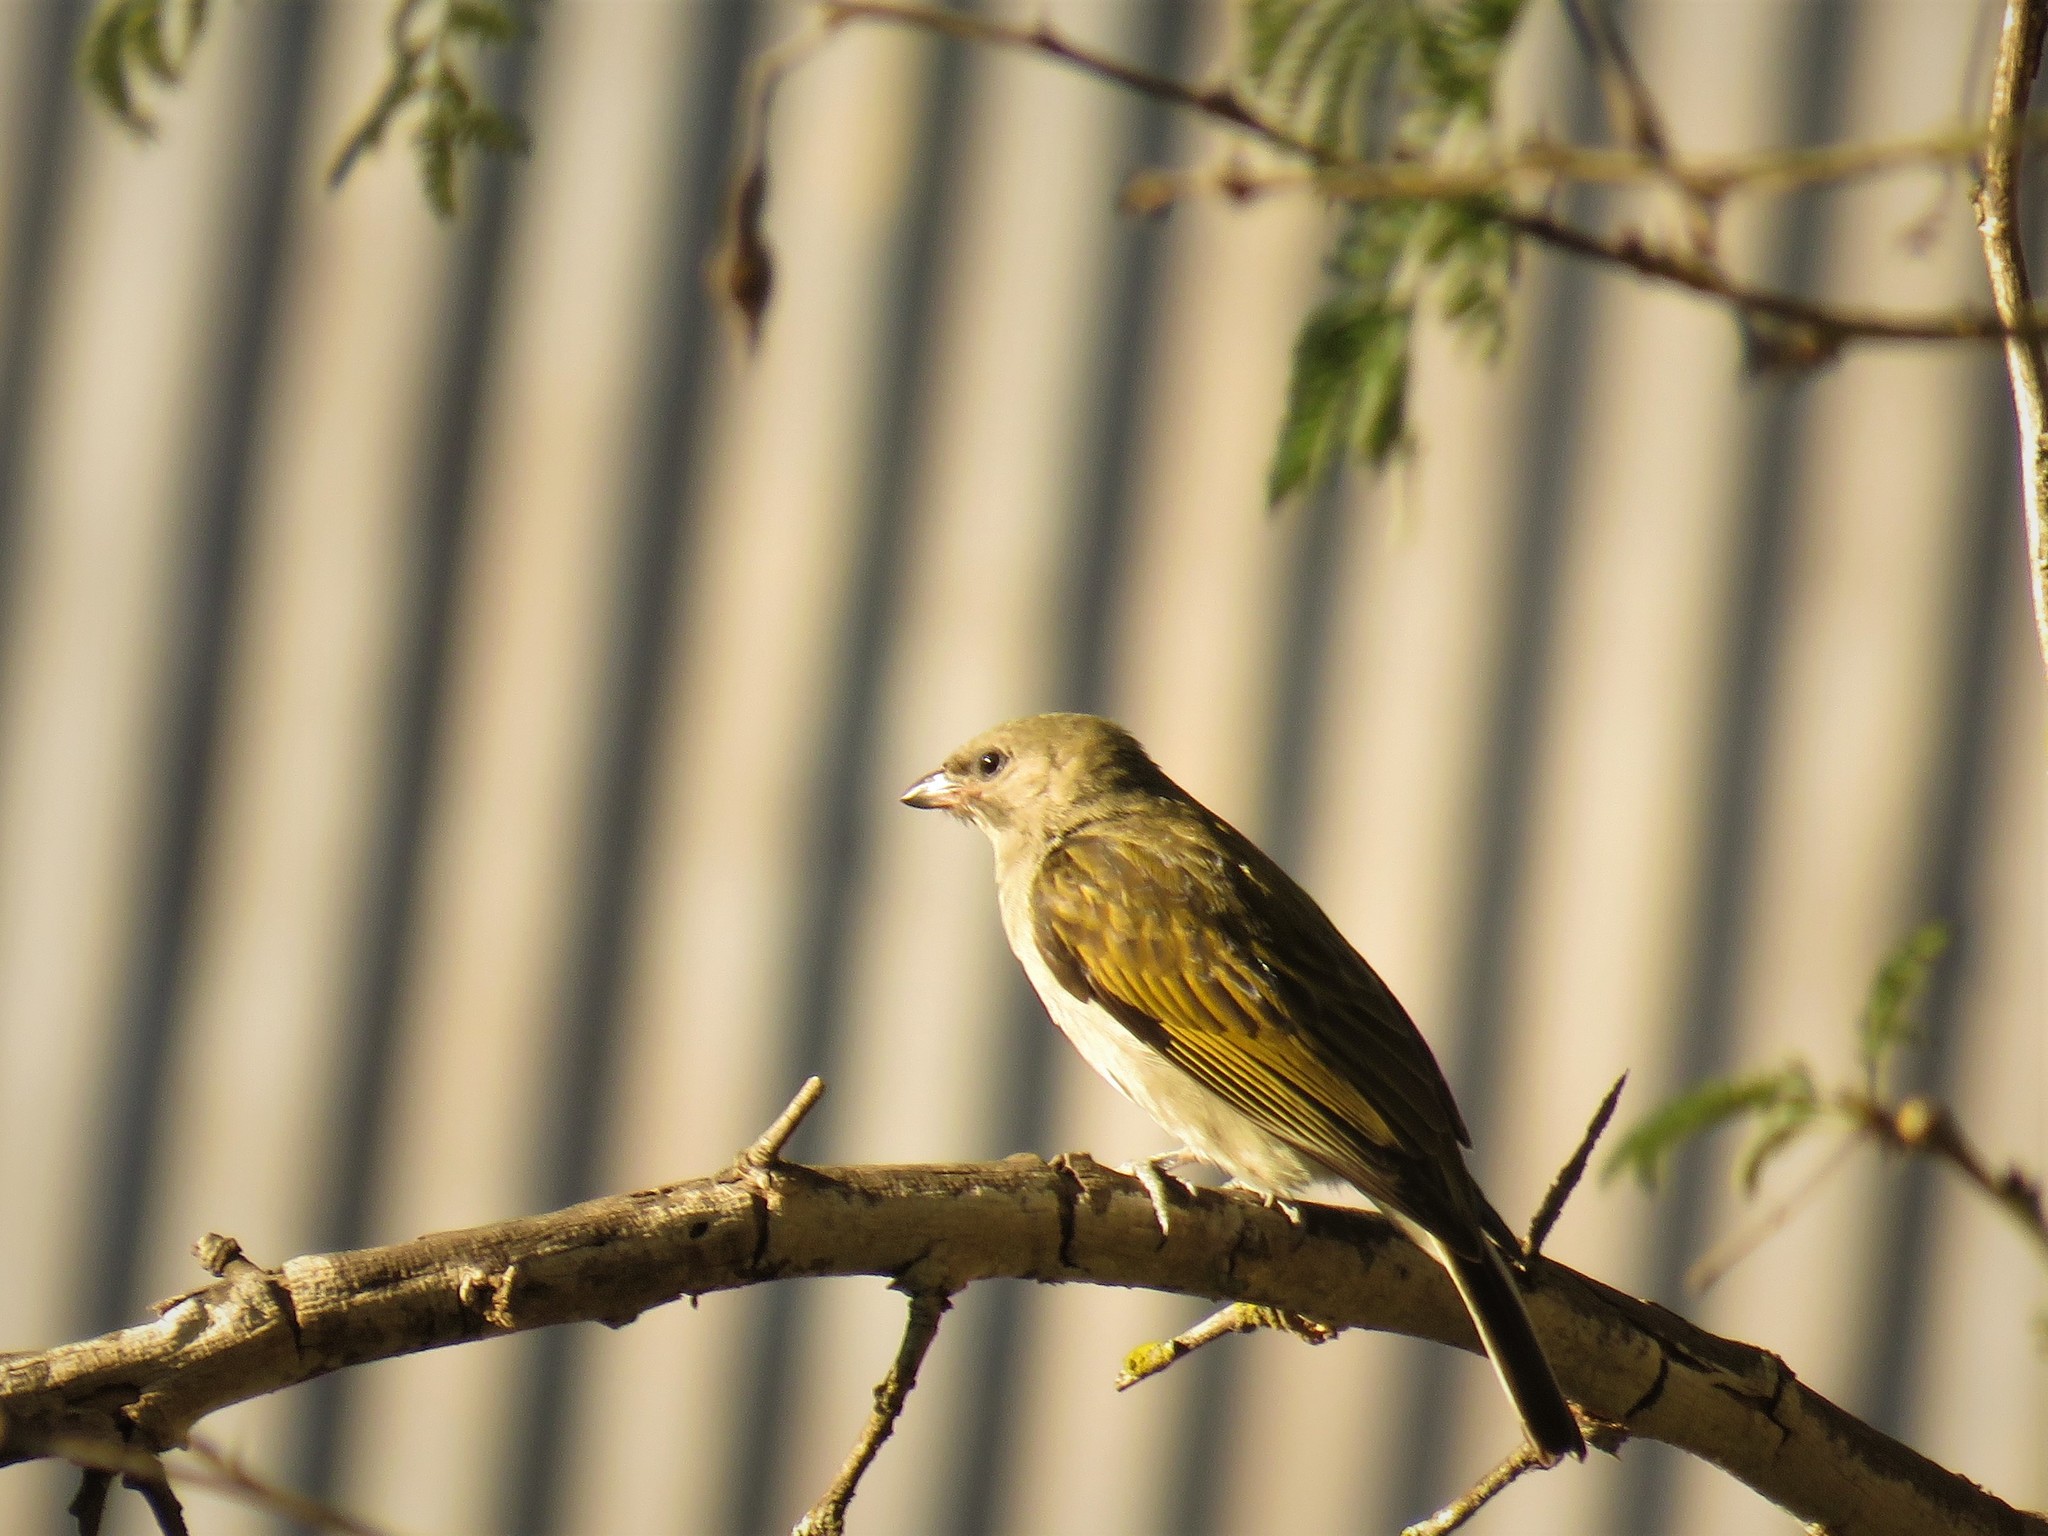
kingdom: Animalia
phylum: Chordata
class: Aves
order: Piciformes
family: Indicatoridae
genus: Indicator
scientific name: Indicator minor
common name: Lesser honeyguide
